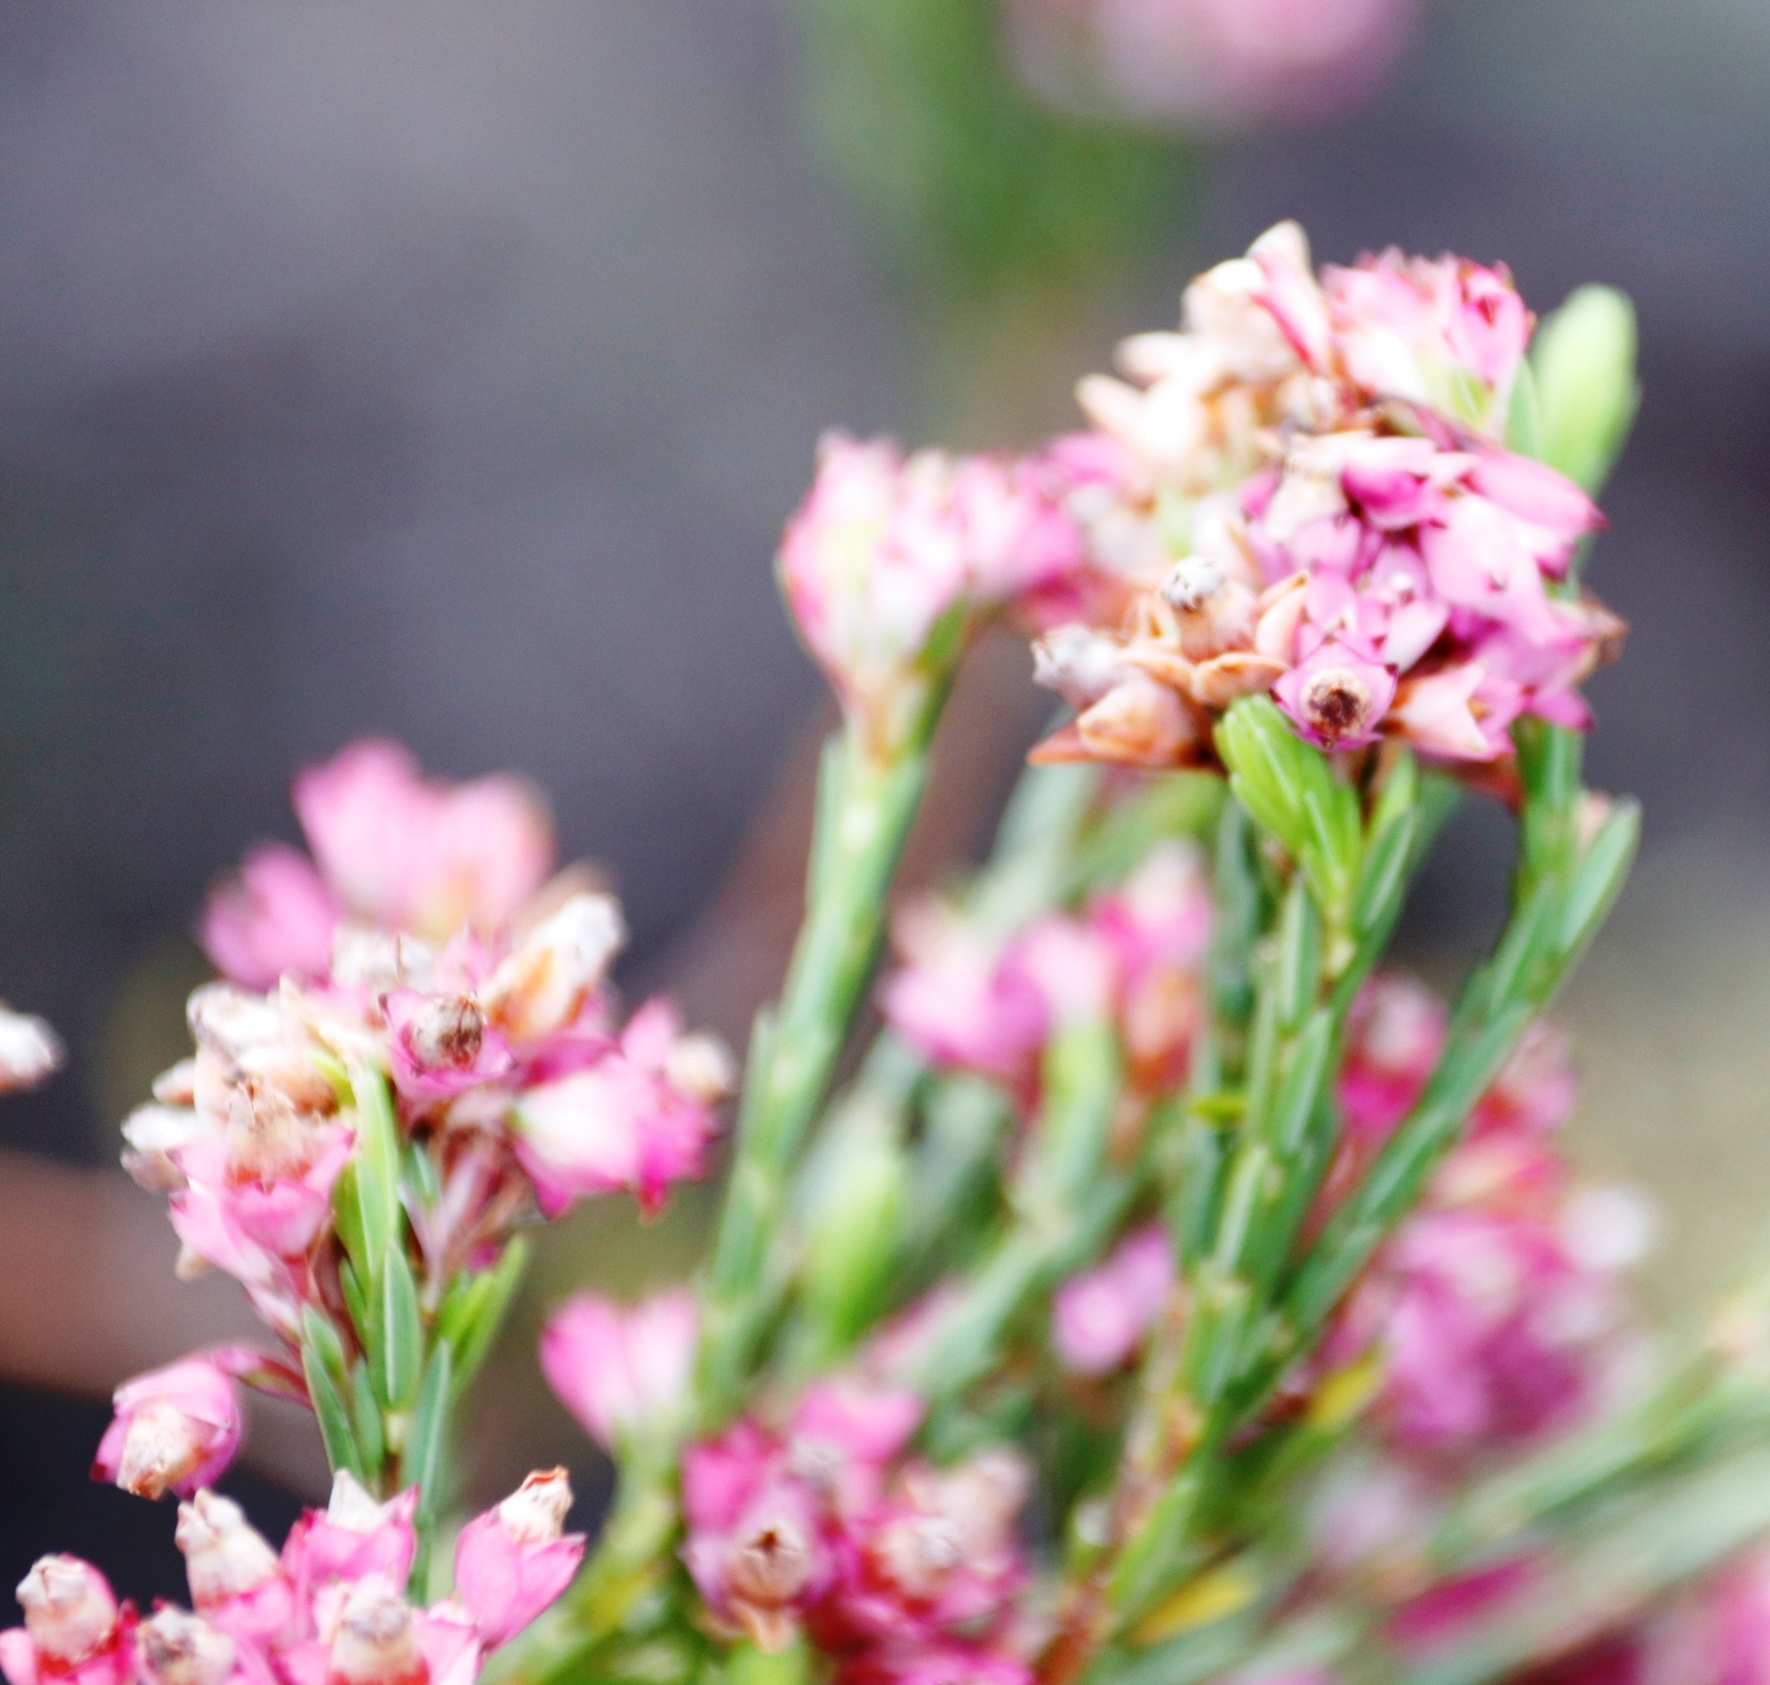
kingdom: Plantae
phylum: Tracheophyta
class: Magnoliopsida
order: Ericales
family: Ericaceae
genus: Erica
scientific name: Erica corifolia
